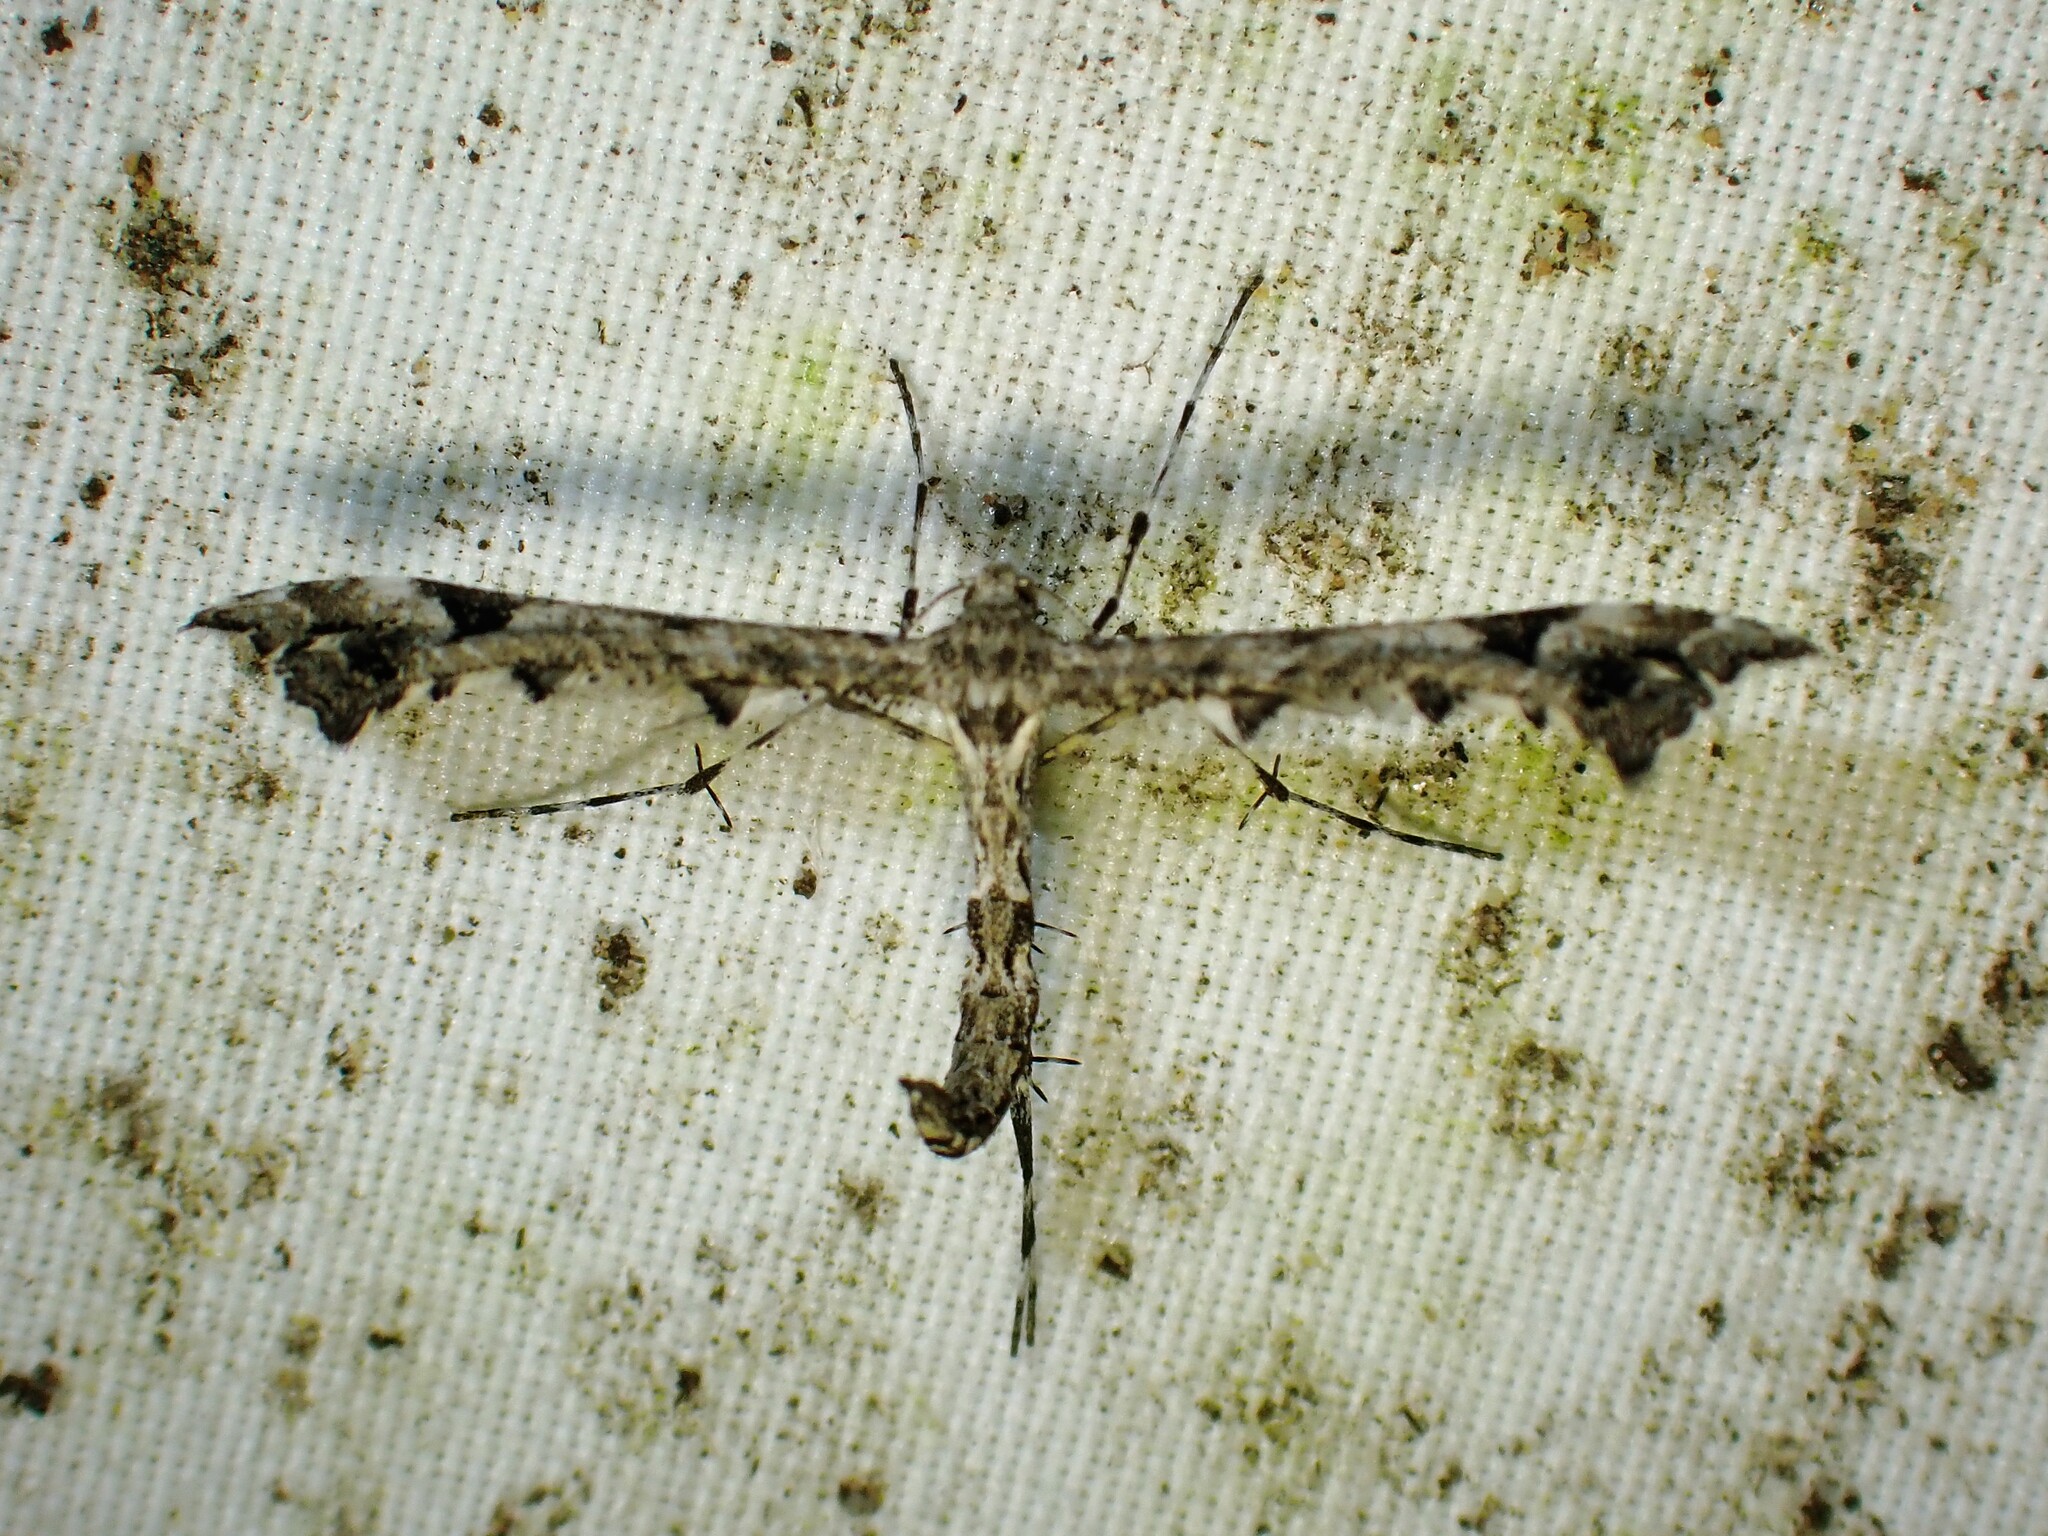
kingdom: Animalia
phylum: Arthropoda
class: Insecta
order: Lepidoptera
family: Pterophoridae
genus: Amblyptilia
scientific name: Amblyptilia pica
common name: Geranium plume moth
